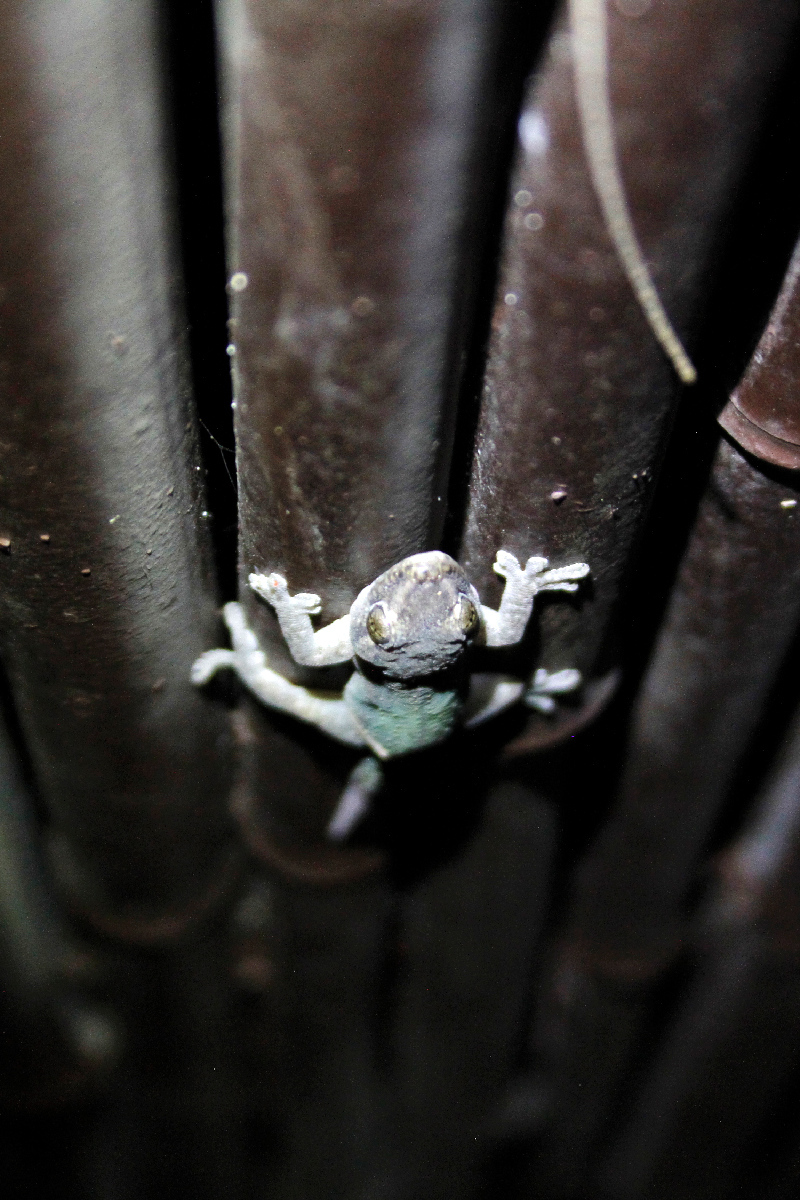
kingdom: Animalia
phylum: Chordata
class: Squamata
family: Gekkonidae
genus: Hemidactylus
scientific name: Hemidactylus frenatus
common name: Common house gecko
